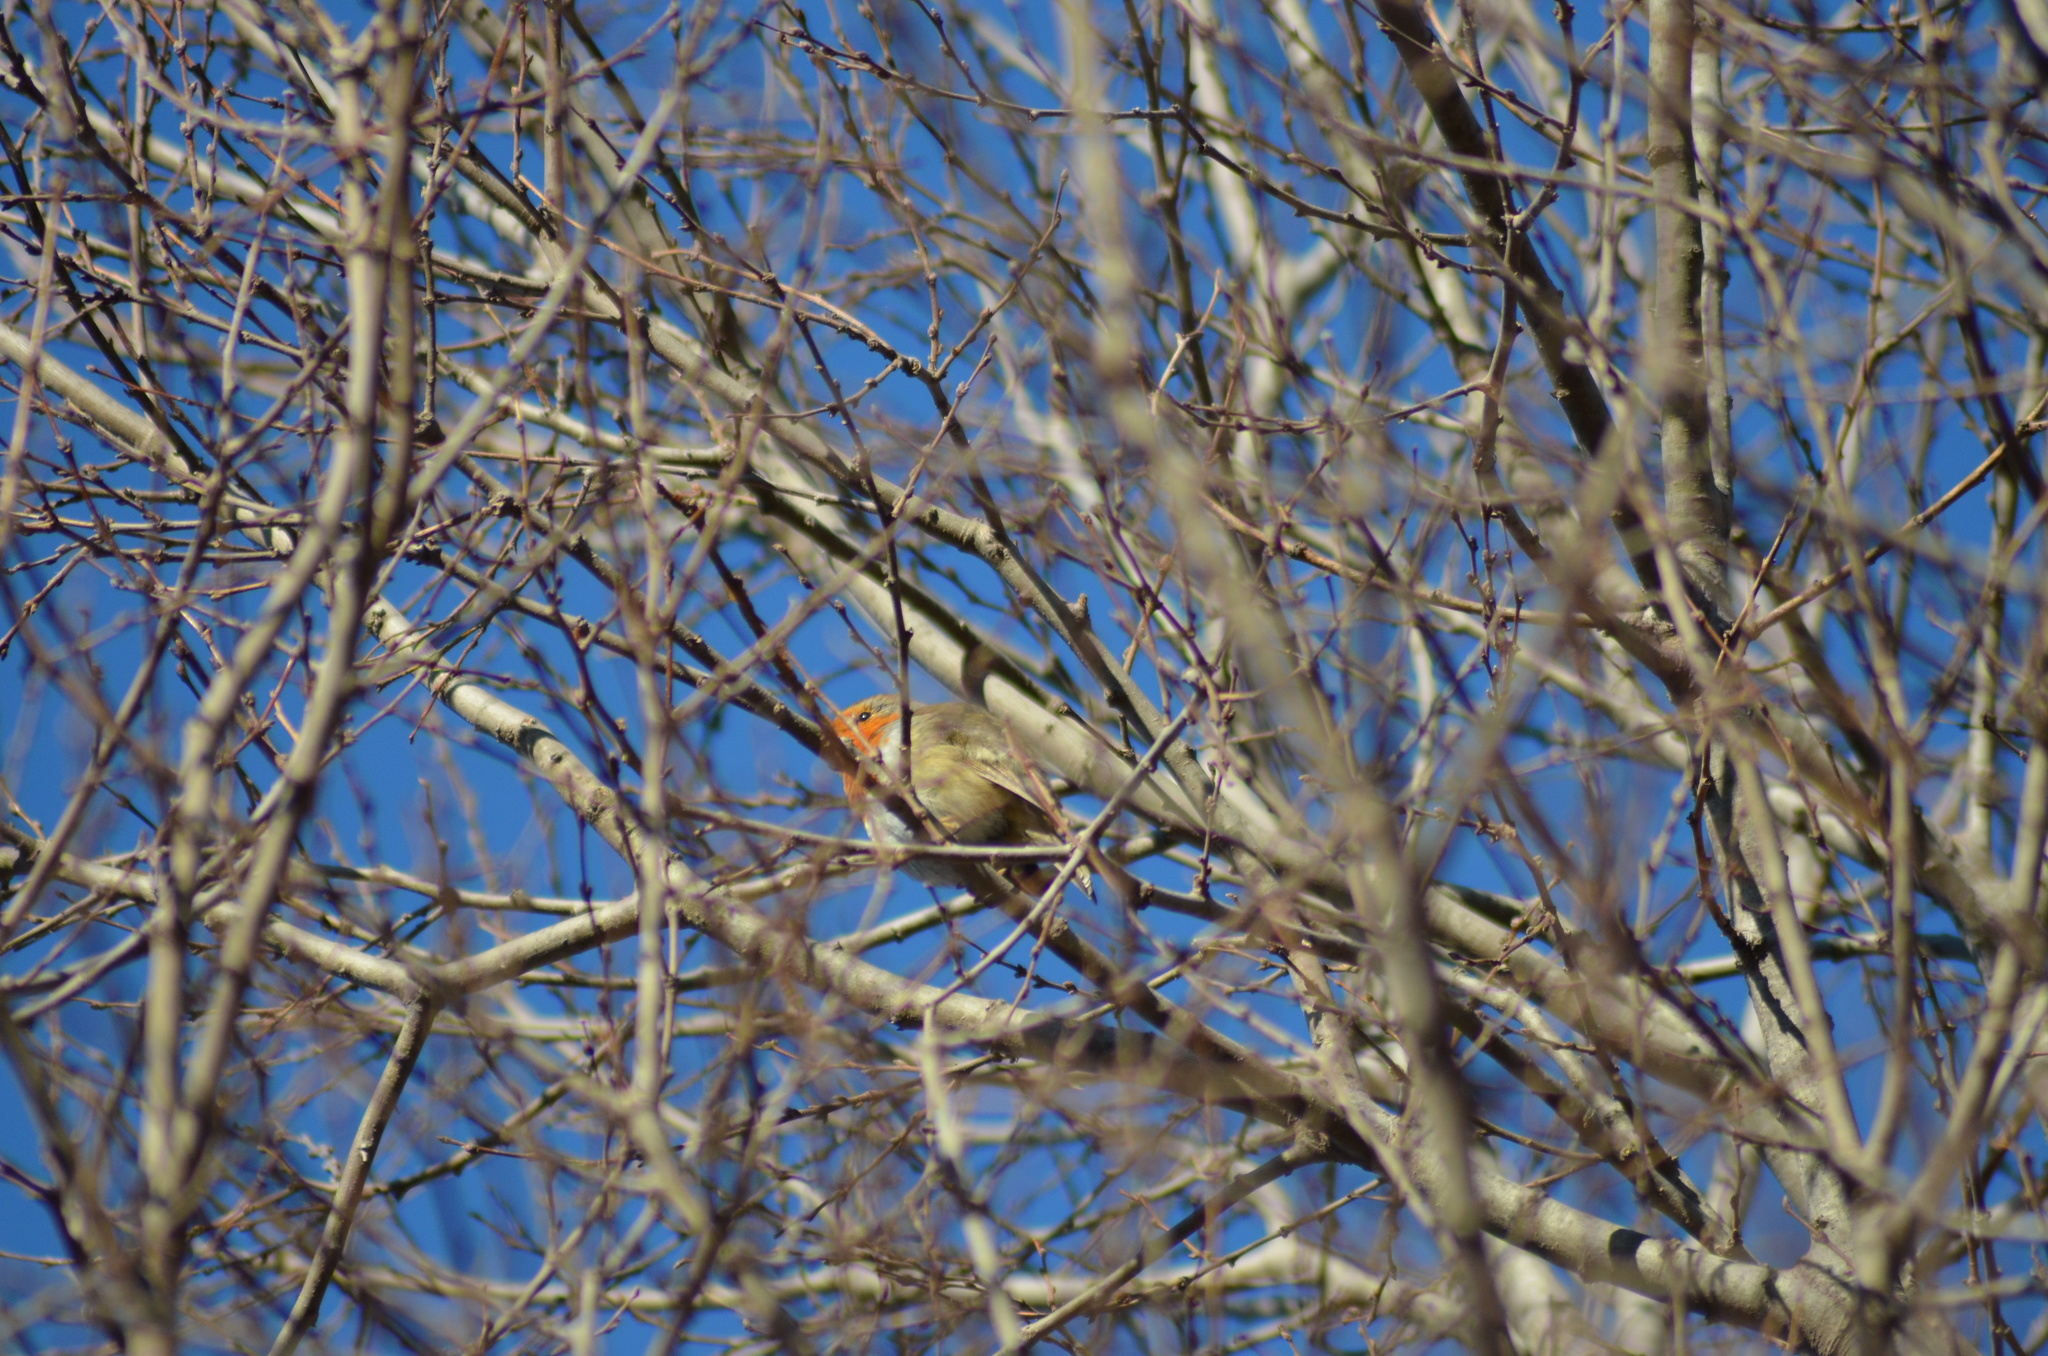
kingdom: Animalia
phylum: Chordata
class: Aves
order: Passeriformes
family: Muscicapidae
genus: Erithacus
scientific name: Erithacus rubecula
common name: European robin
